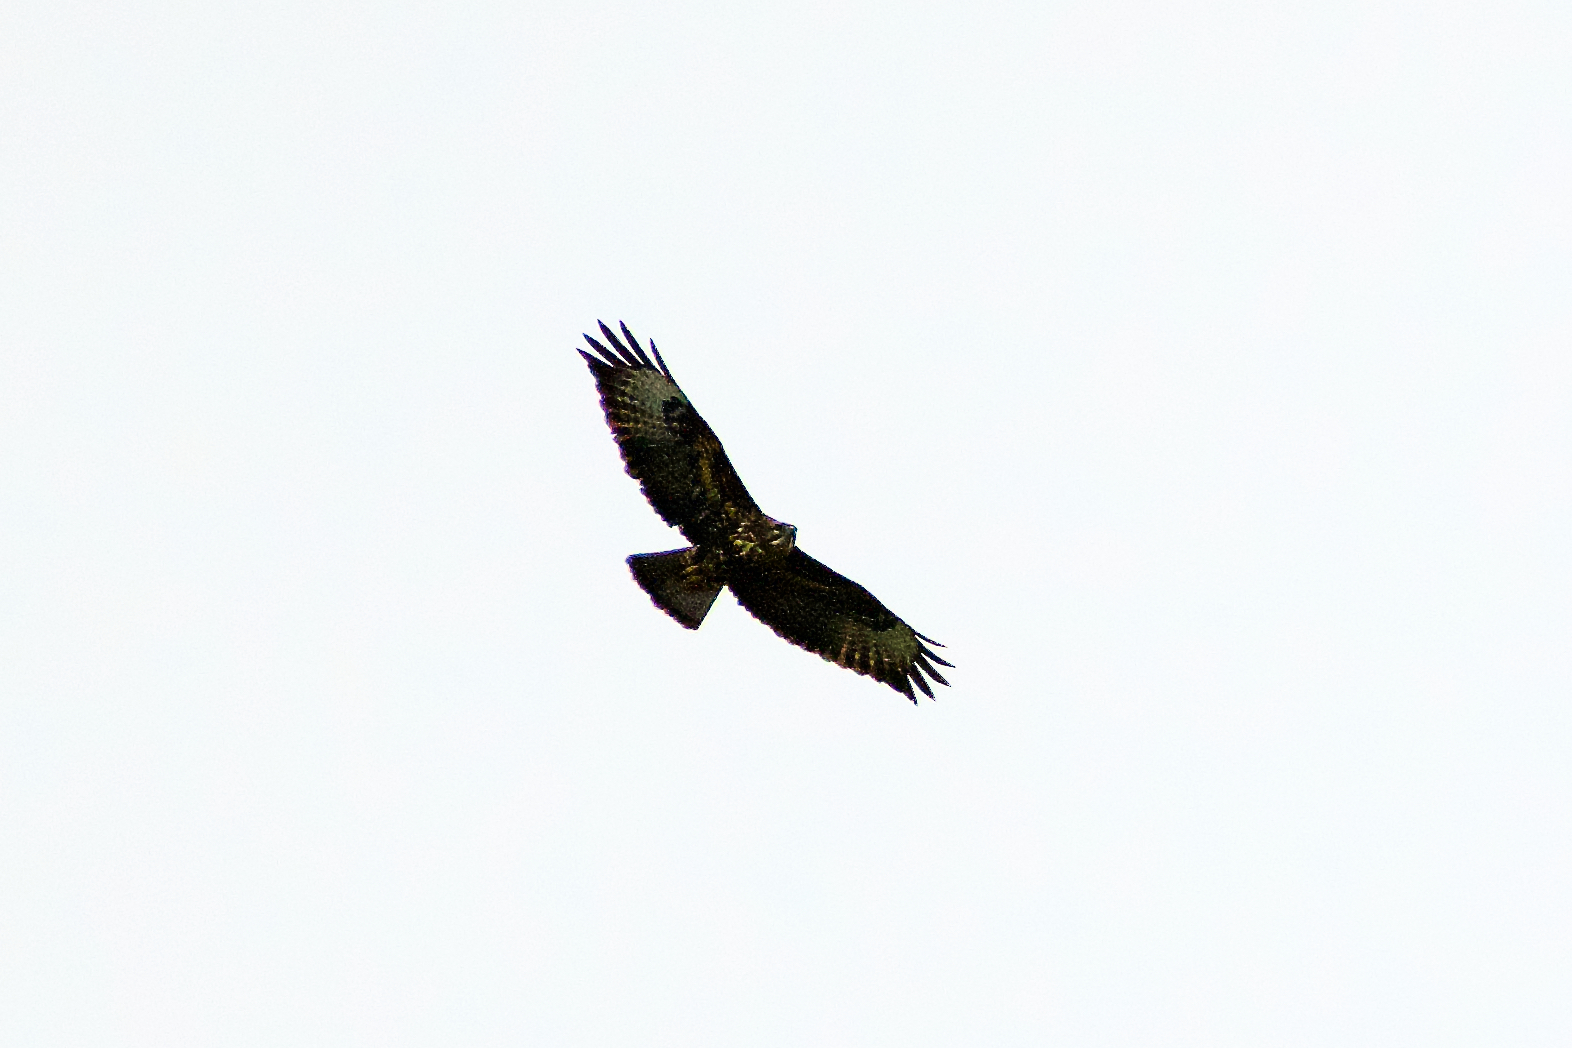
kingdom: Animalia
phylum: Chordata
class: Aves
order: Accipitriformes
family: Accipitridae
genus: Buteo
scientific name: Buteo buteo
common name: Common buzzard
